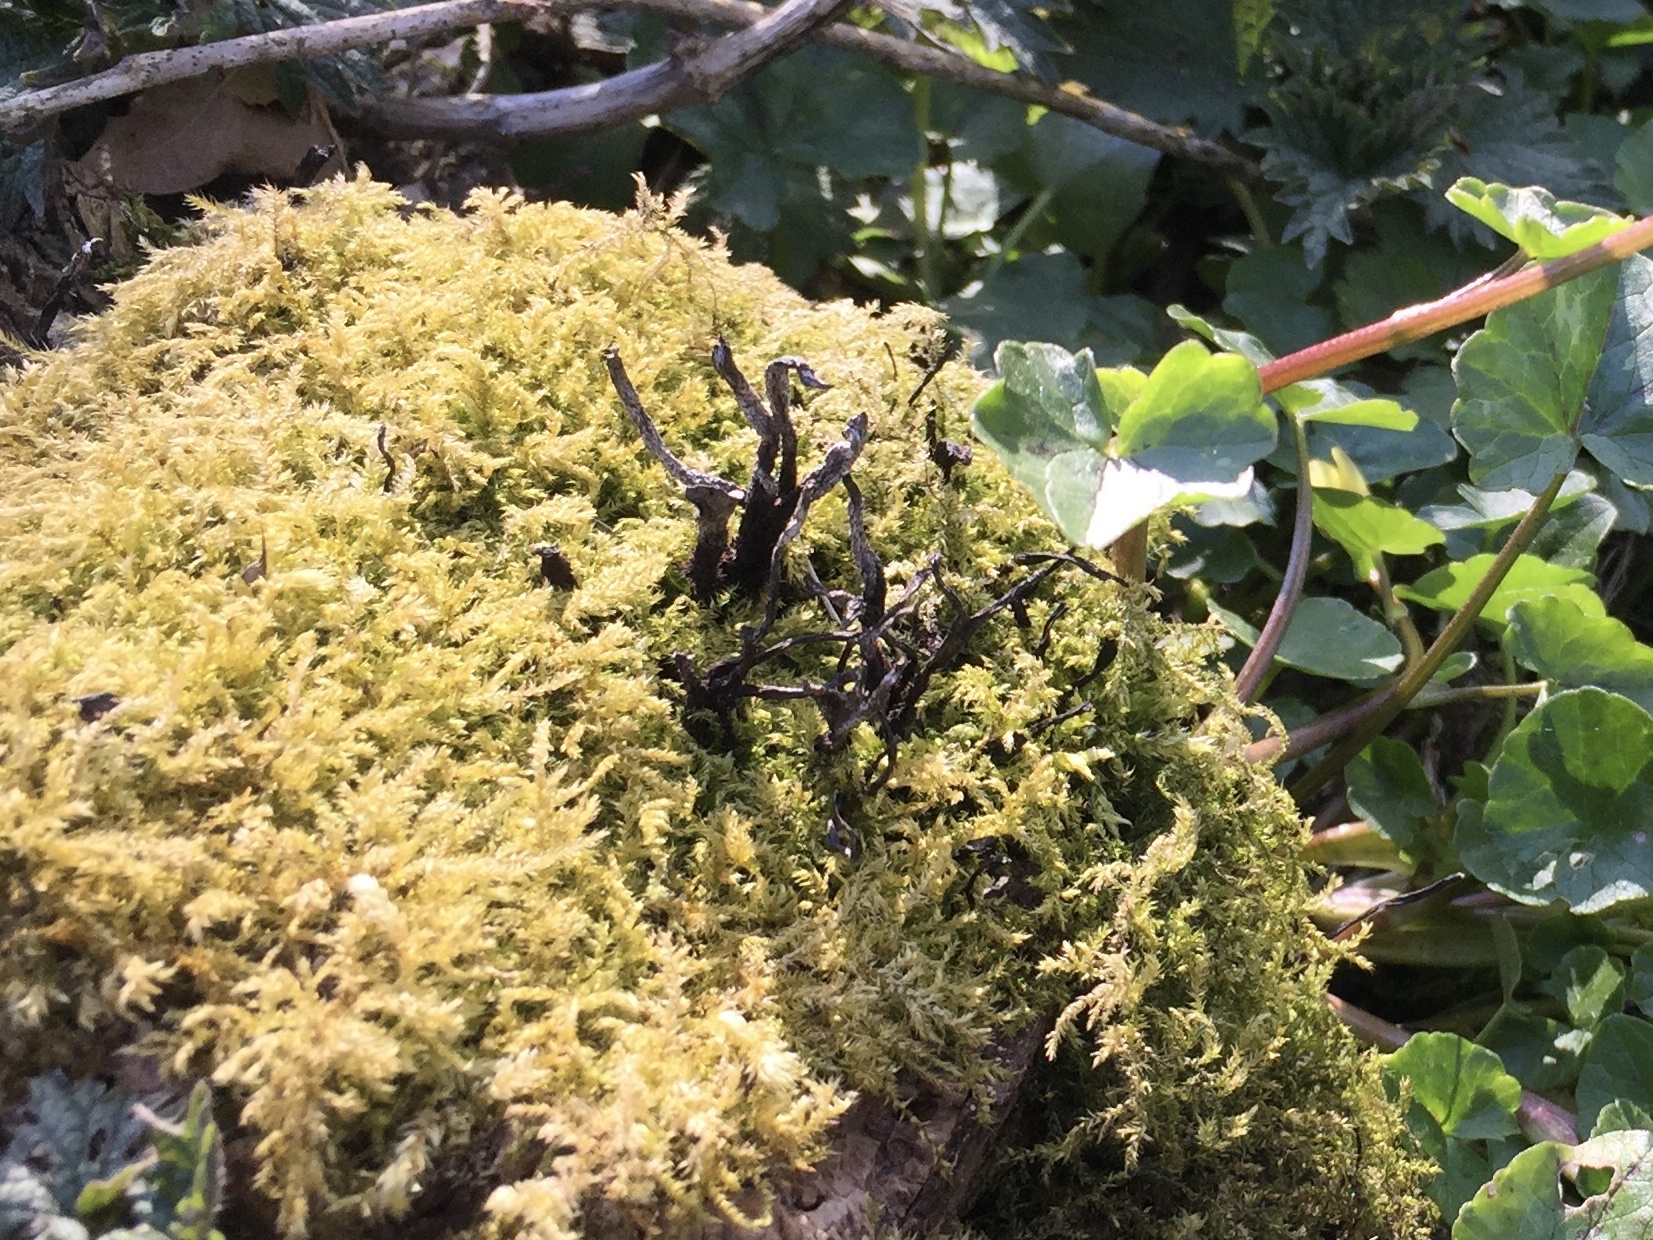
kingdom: Fungi
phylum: Ascomycota
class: Sordariomycetes
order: Xylariales
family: Xylariaceae
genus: Xylaria
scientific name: Xylaria hypoxylon
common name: Candle-snuff fungus
